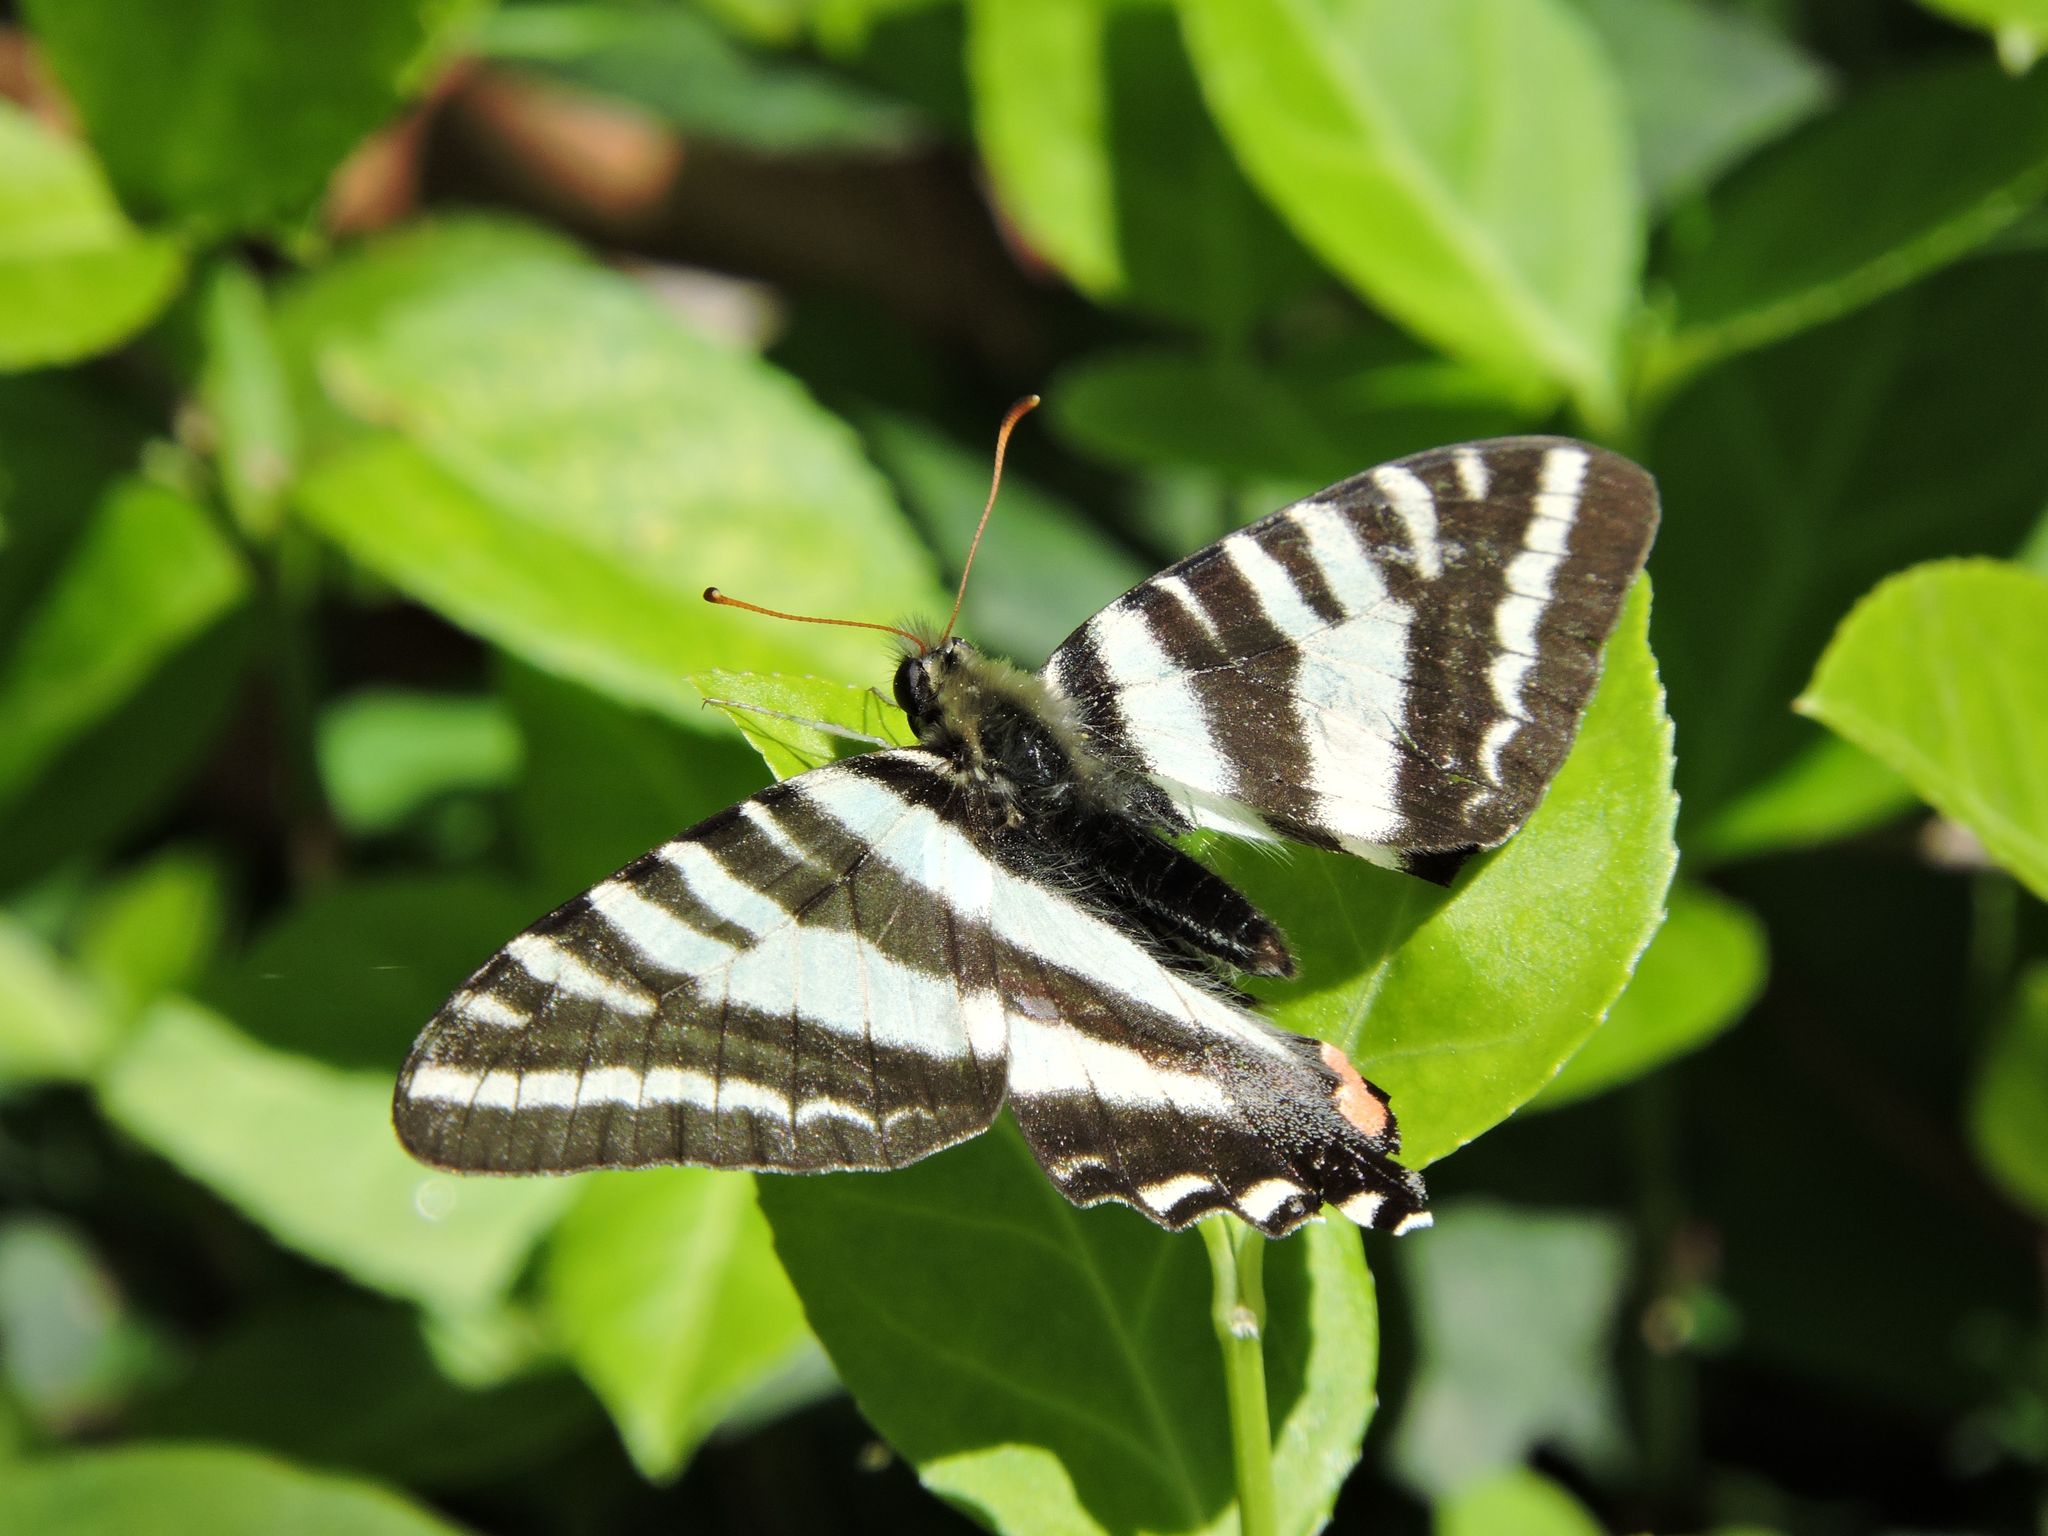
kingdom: Animalia
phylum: Arthropoda
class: Insecta
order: Lepidoptera
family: Papilionidae
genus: Protographium
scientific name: Protographium marcellus
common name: Zebra swallowtail
